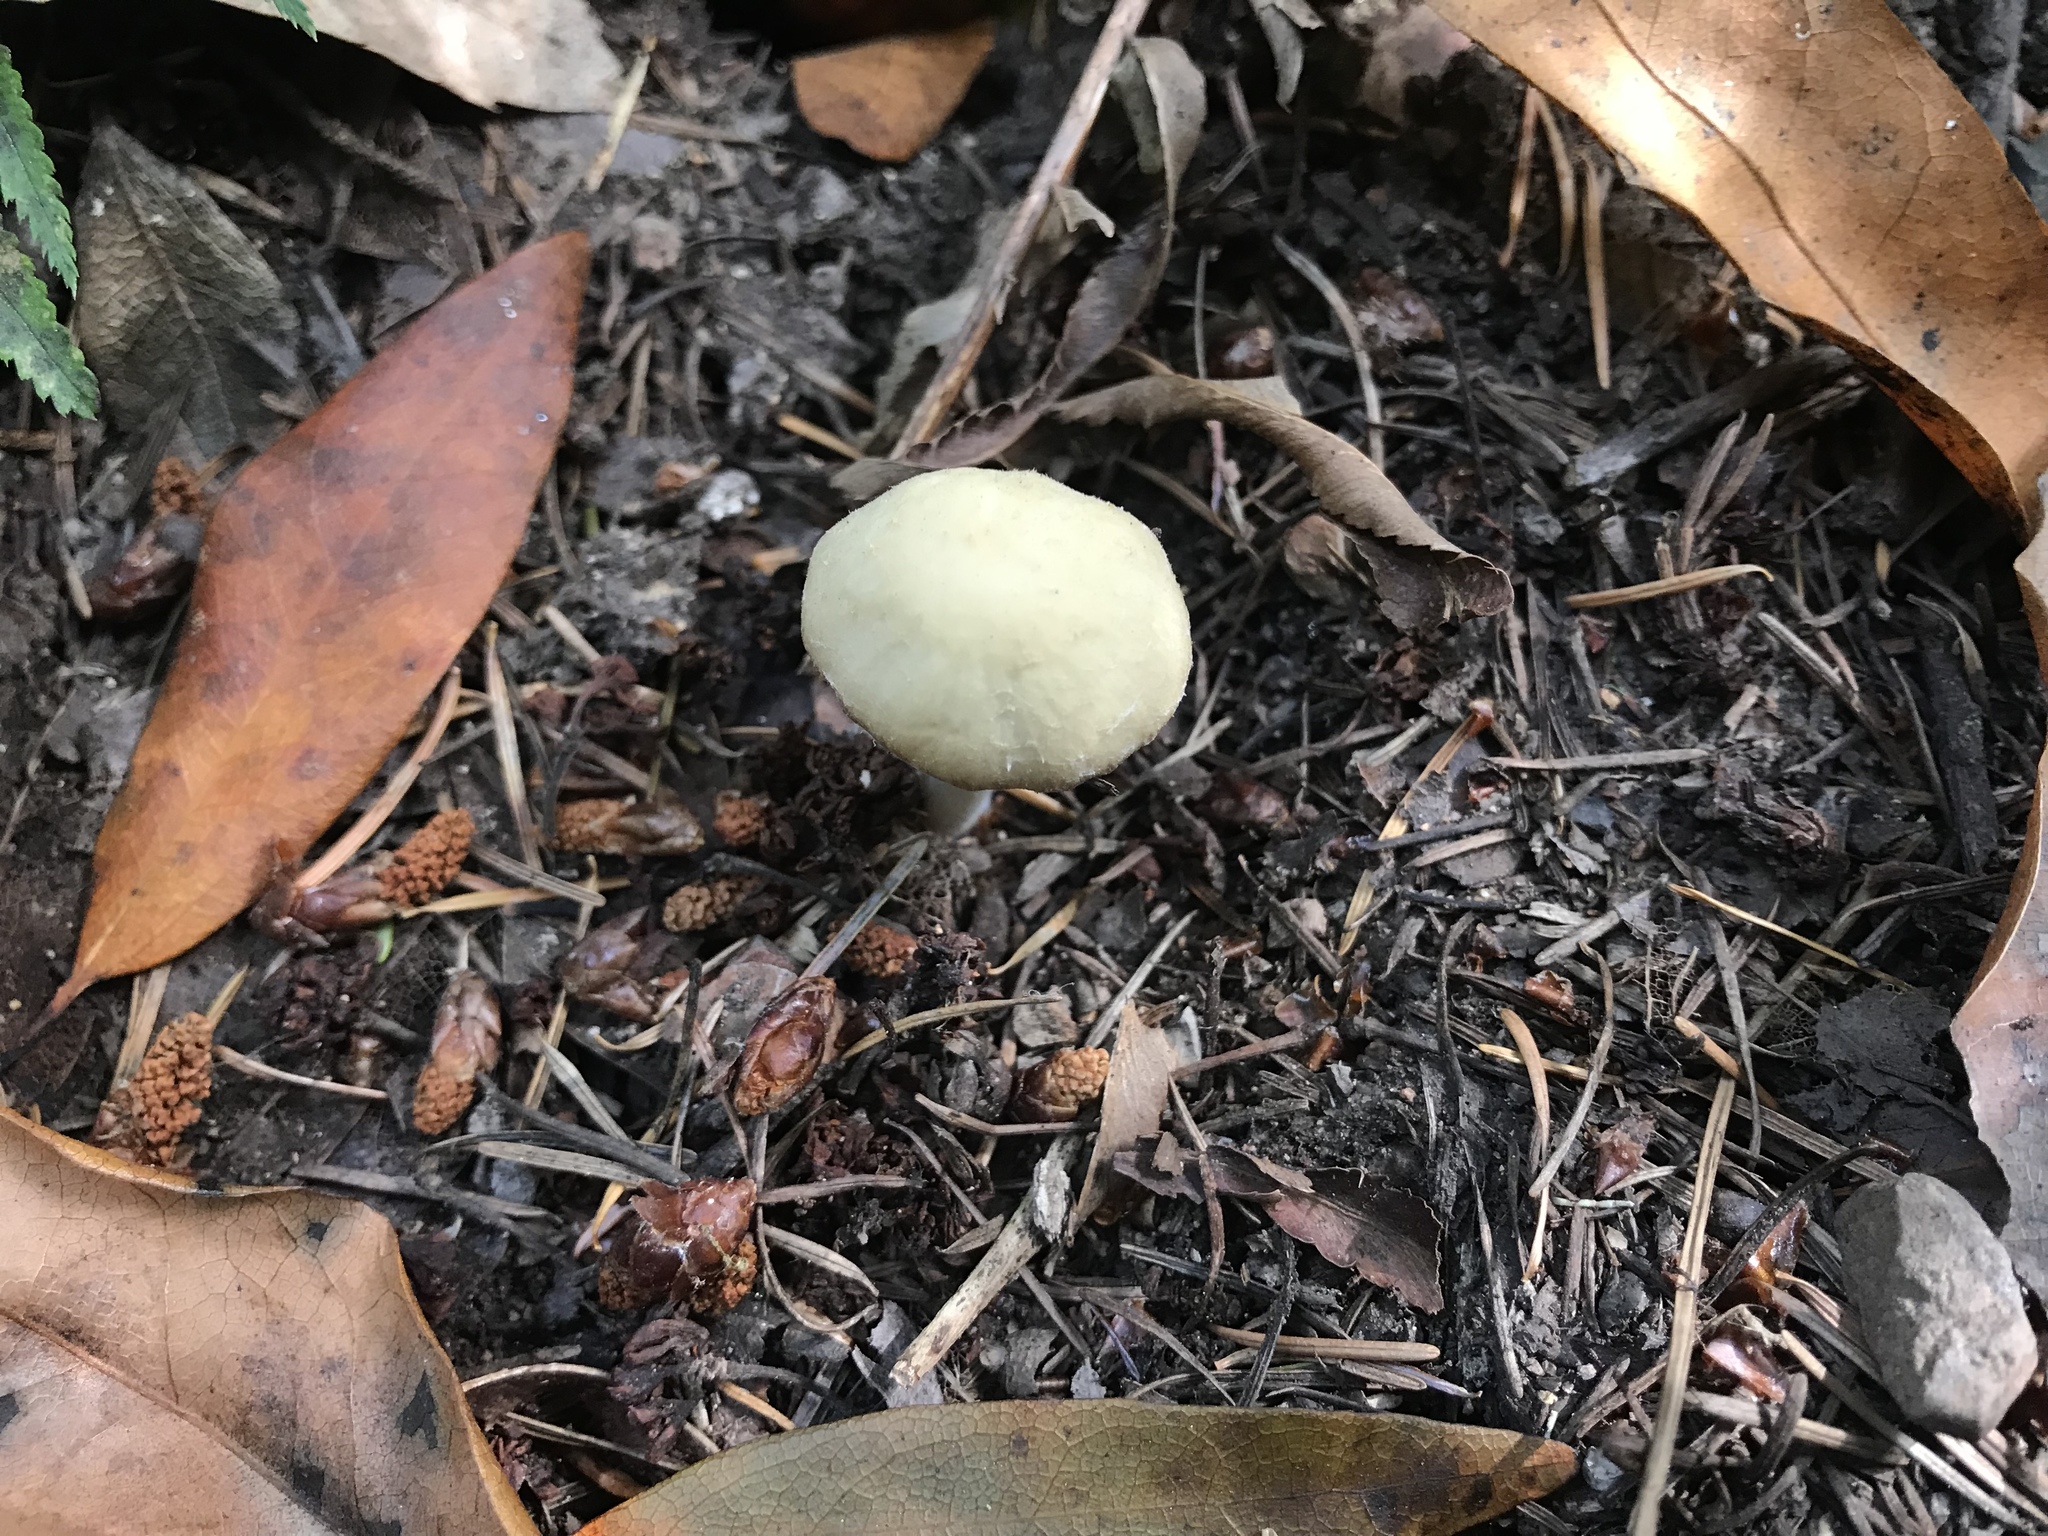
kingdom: Fungi
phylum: Basidiomycota
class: Agaricomycetes
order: Agaricales
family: Psathyrellaceae
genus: Candolleomyces
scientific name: Candolleomyces candolleanus
